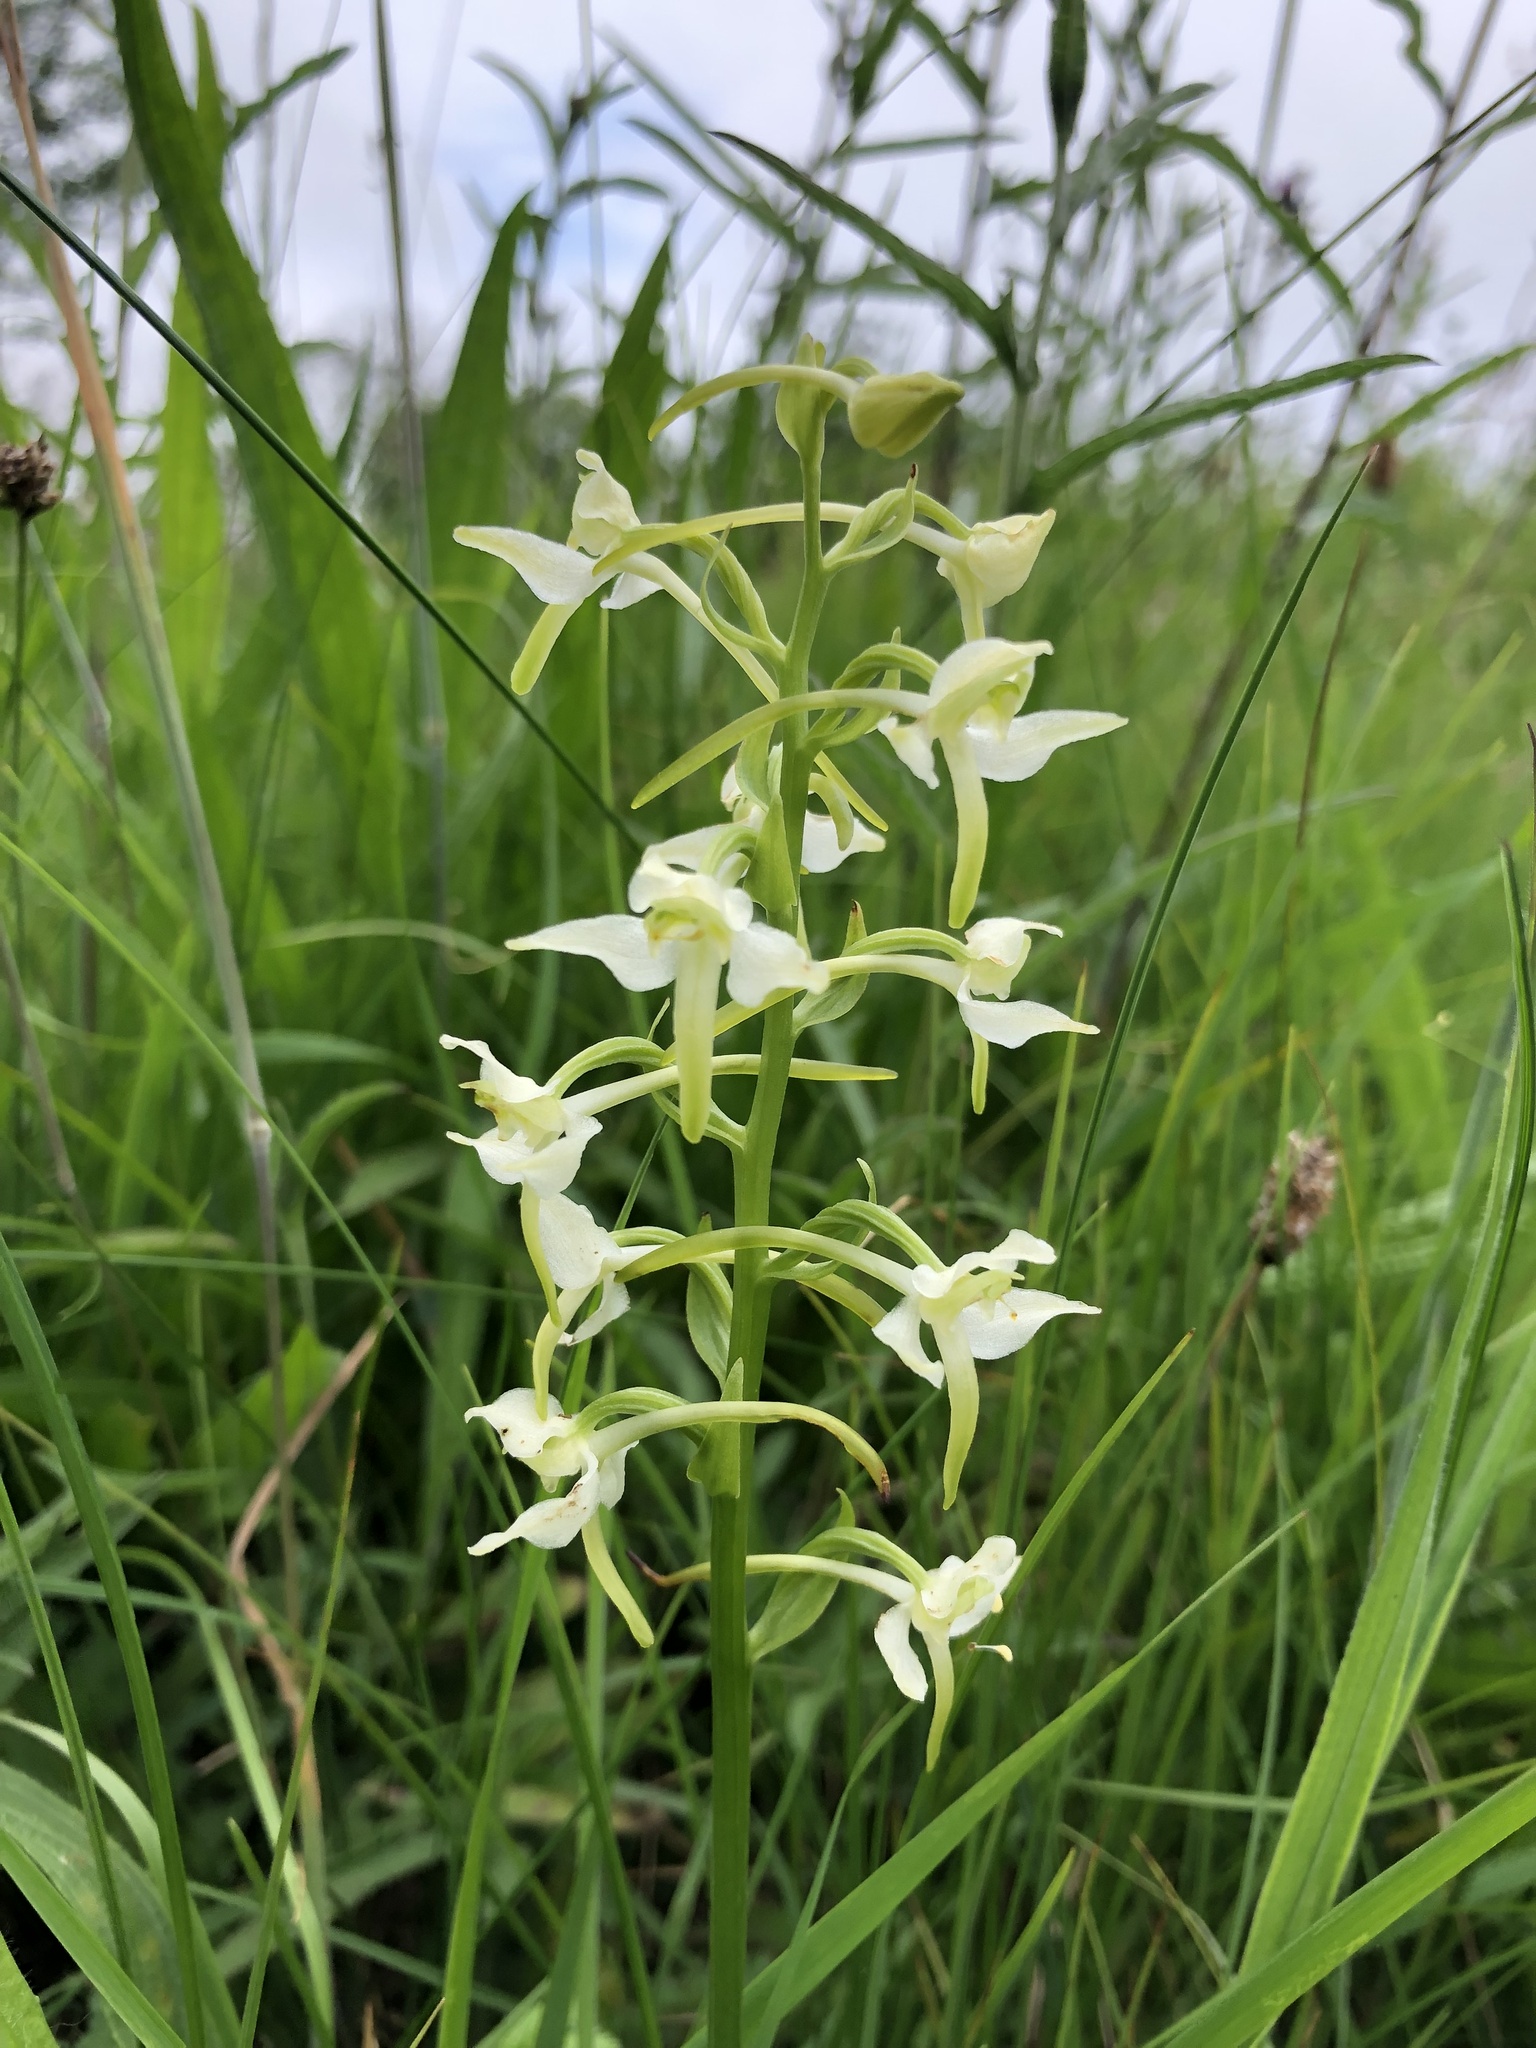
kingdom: Plantae
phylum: Tracheophyta
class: Liliopsida
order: Asparagales
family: Orchidaceae
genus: Platanthera
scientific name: Platanthera chlorantha
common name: Greater butterfly-orchid
